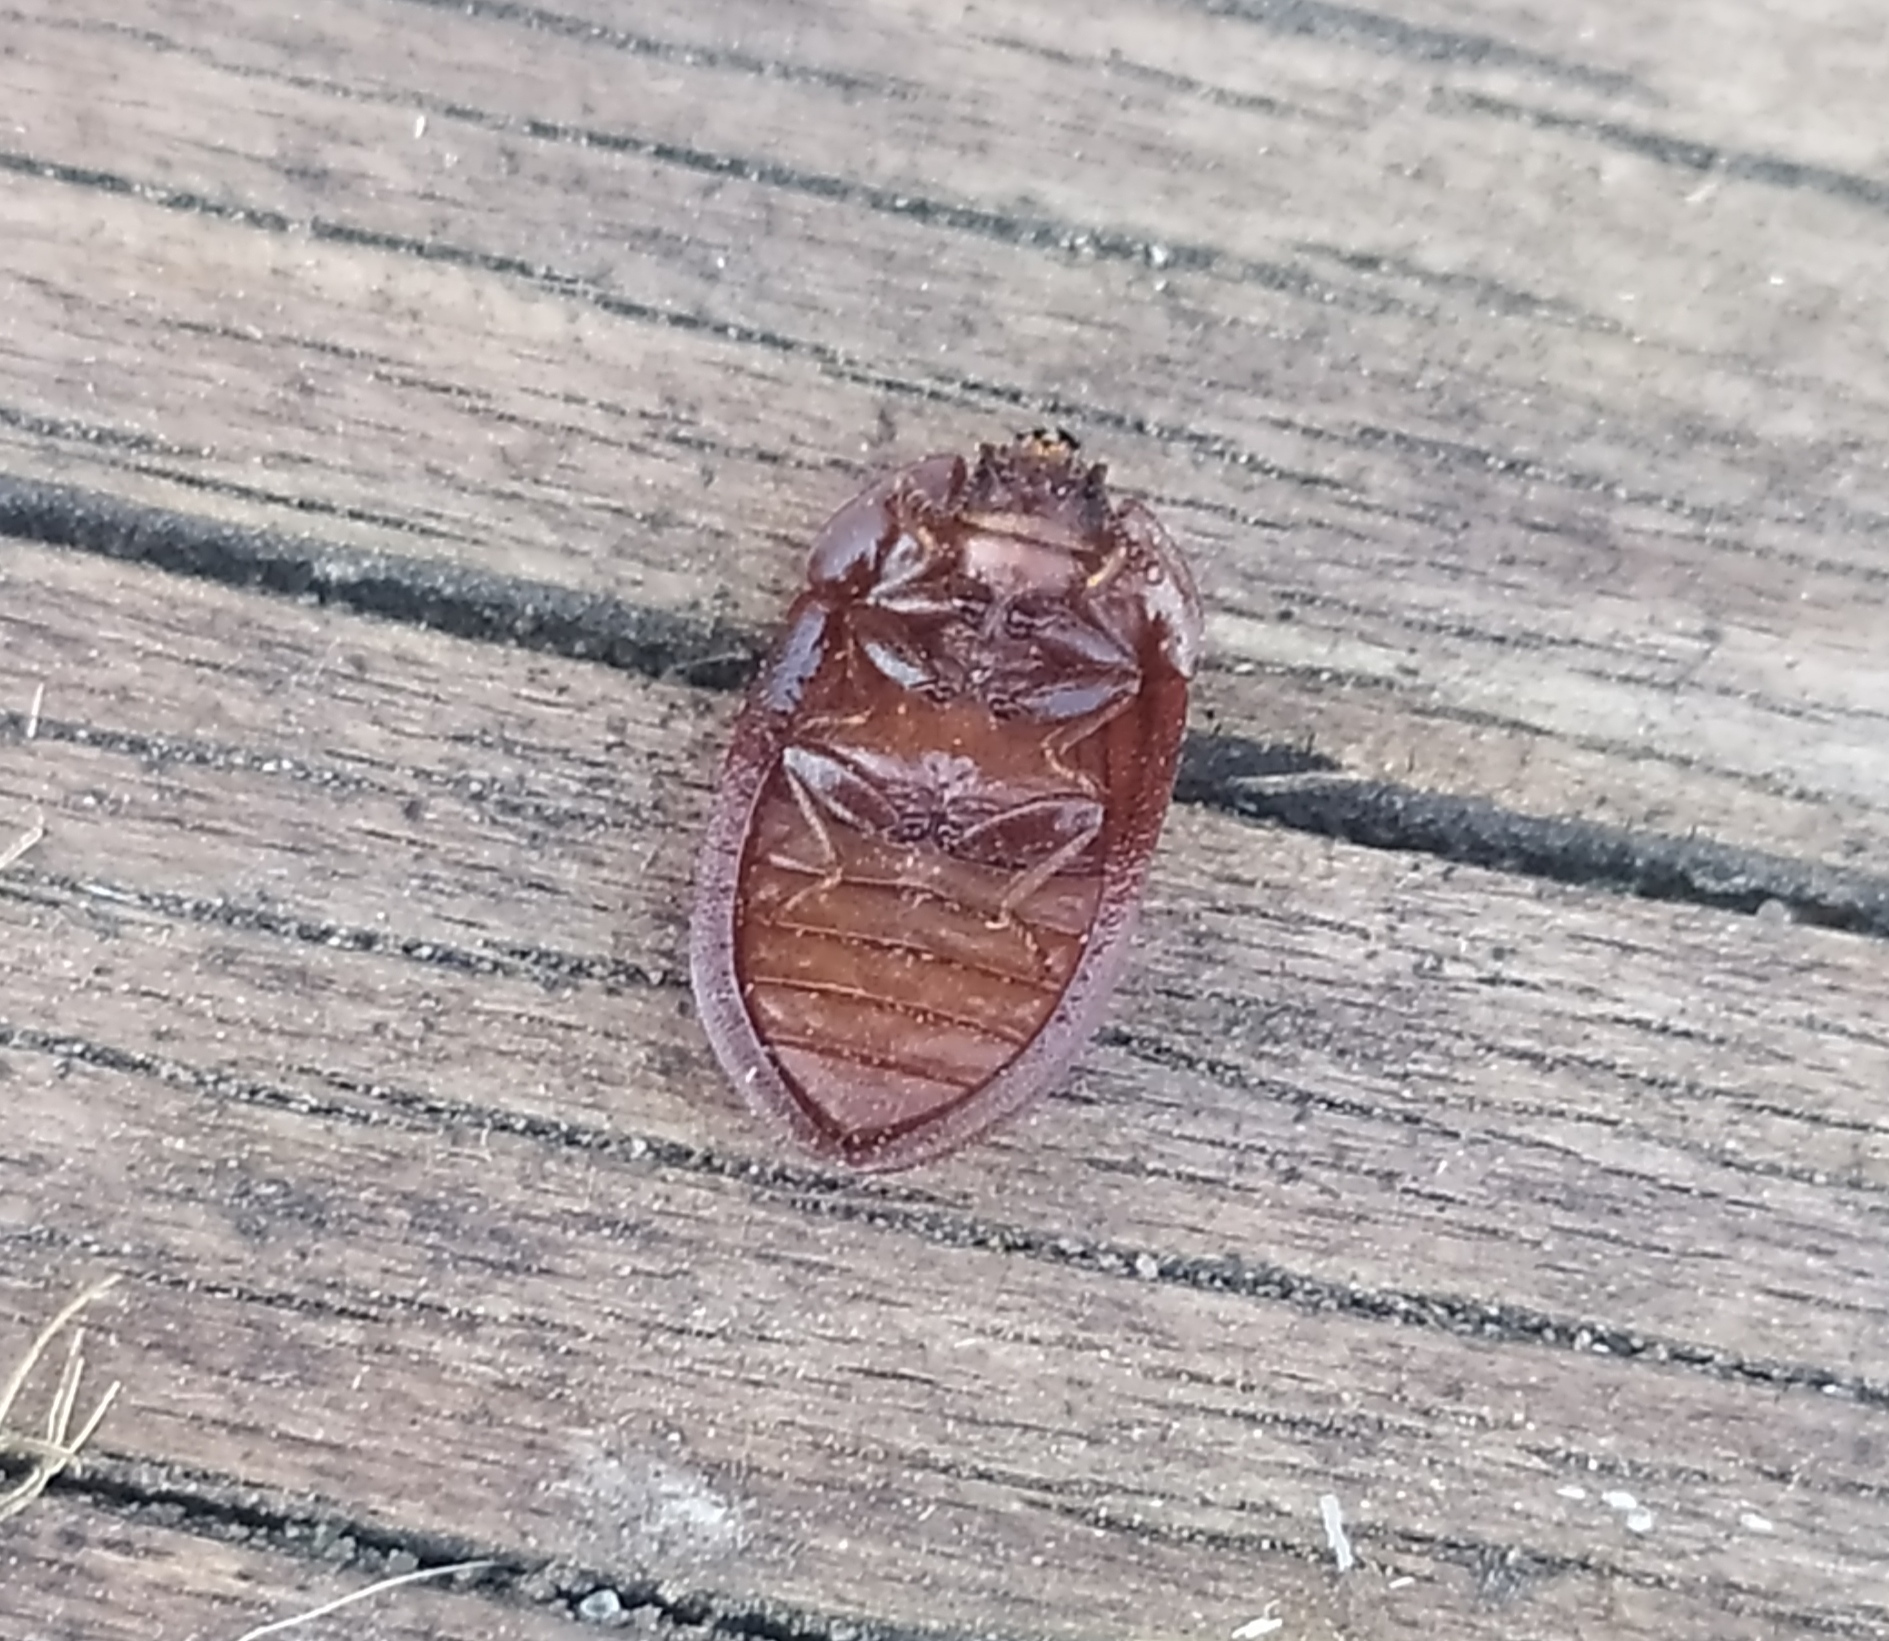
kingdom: Animalia
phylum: Arthropoda
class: Insecta
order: Coleoptera
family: Trogossitidae
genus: Peltis
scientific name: Peltis ferruginea
